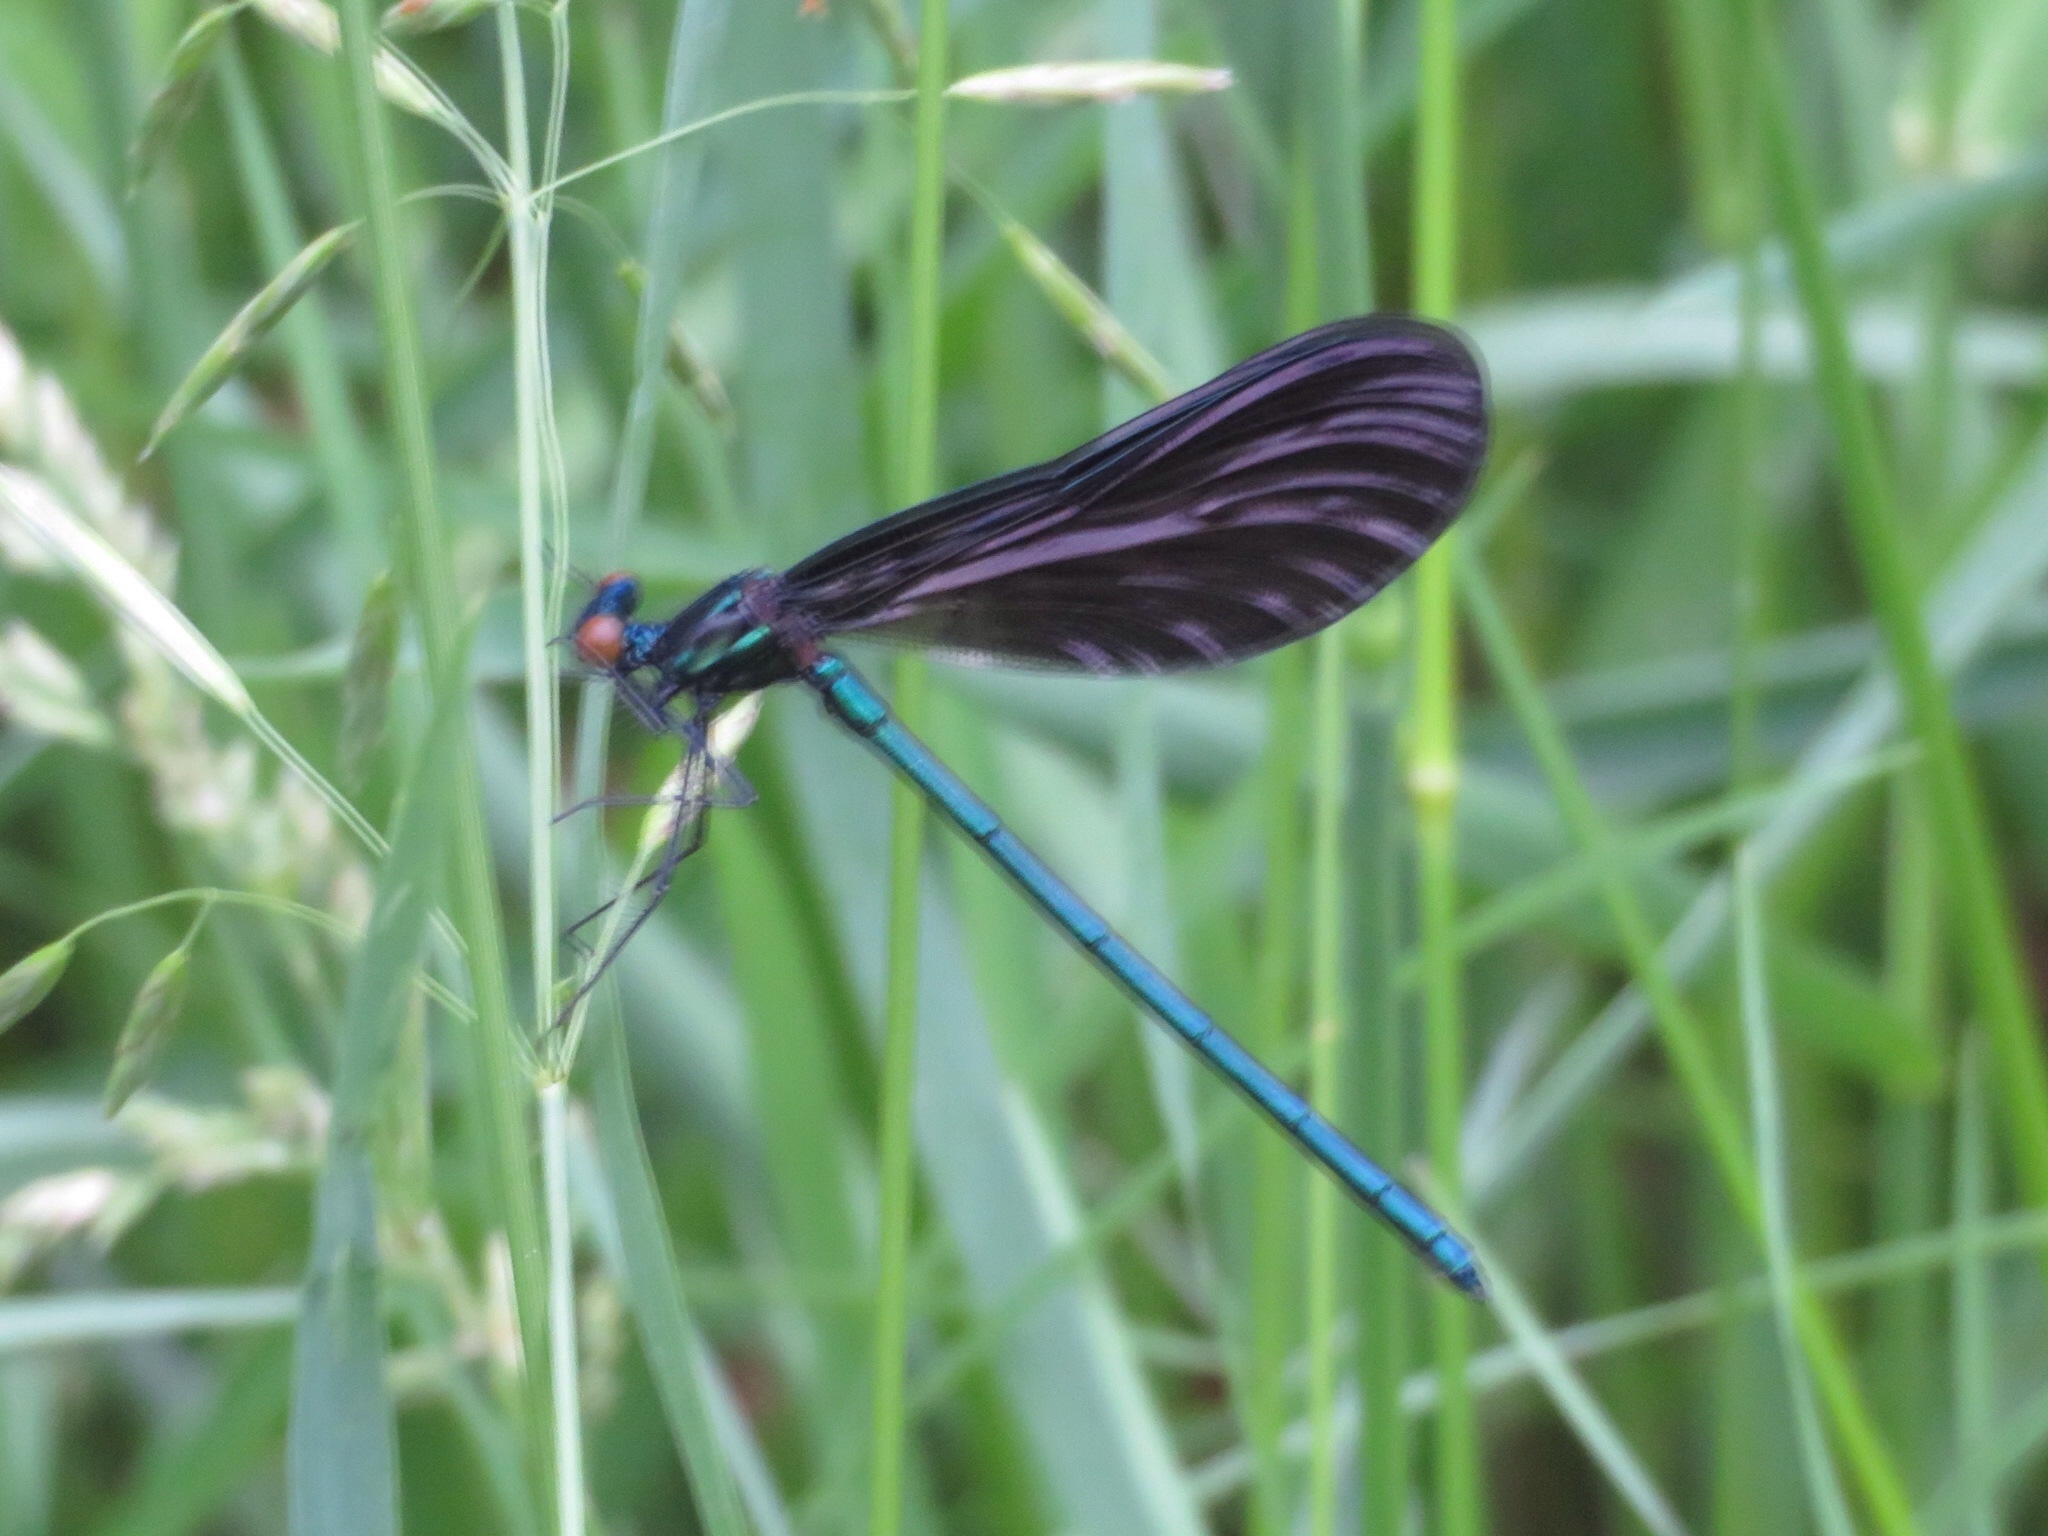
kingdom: Animalia
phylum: Arthropoda
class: Insecta
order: Odonata
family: Calopterygidae
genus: Calopteryx
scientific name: Calopteryx maculata
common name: Ebony jewelwing
